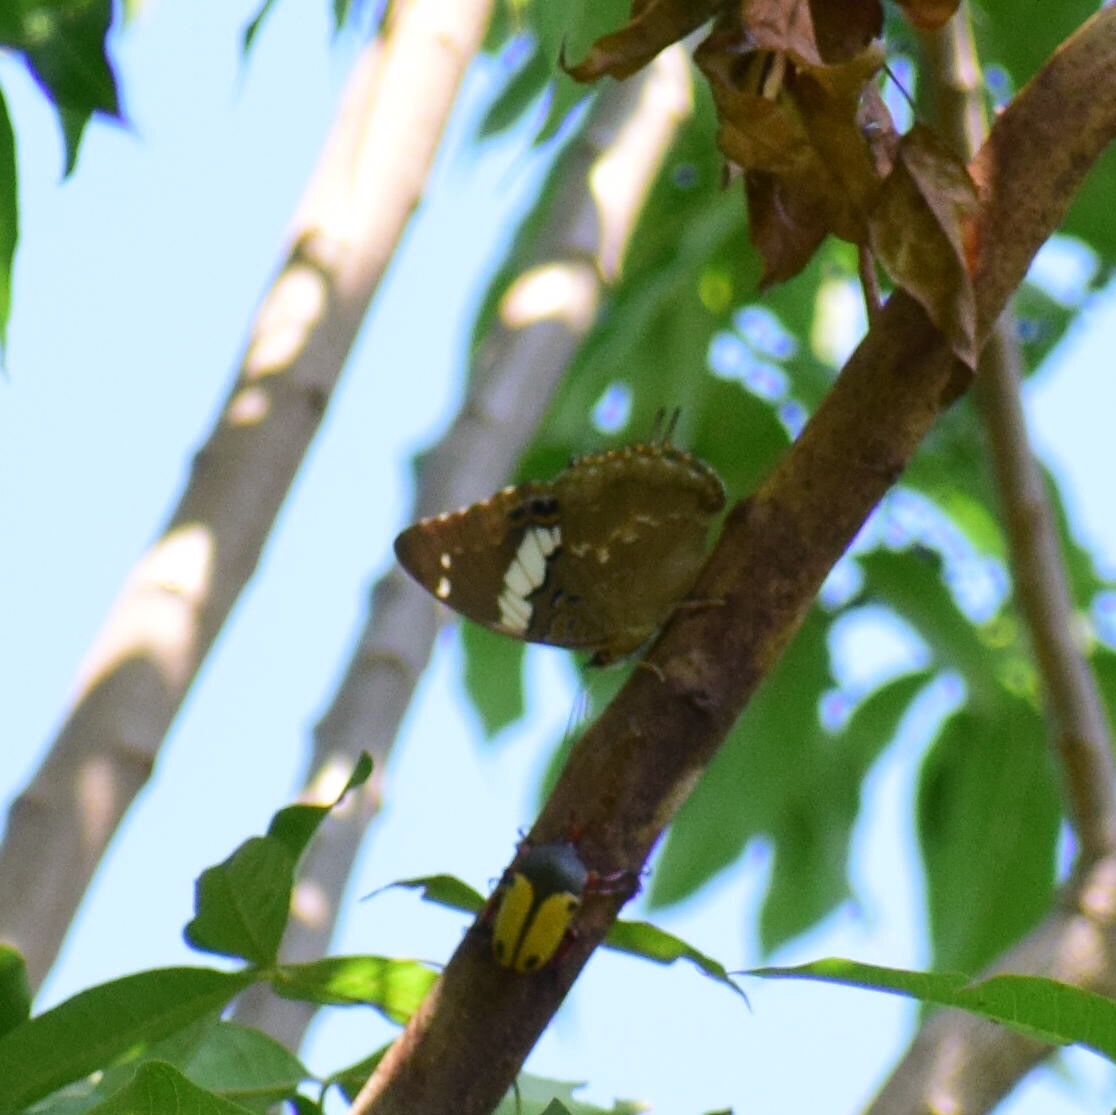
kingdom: Animalia
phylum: Arthropoda
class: Insecta
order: Lepidoptera
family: Nymphalidae
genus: Charaxes
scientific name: Charaxes cithaeron
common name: Blue-spotted charaxes
